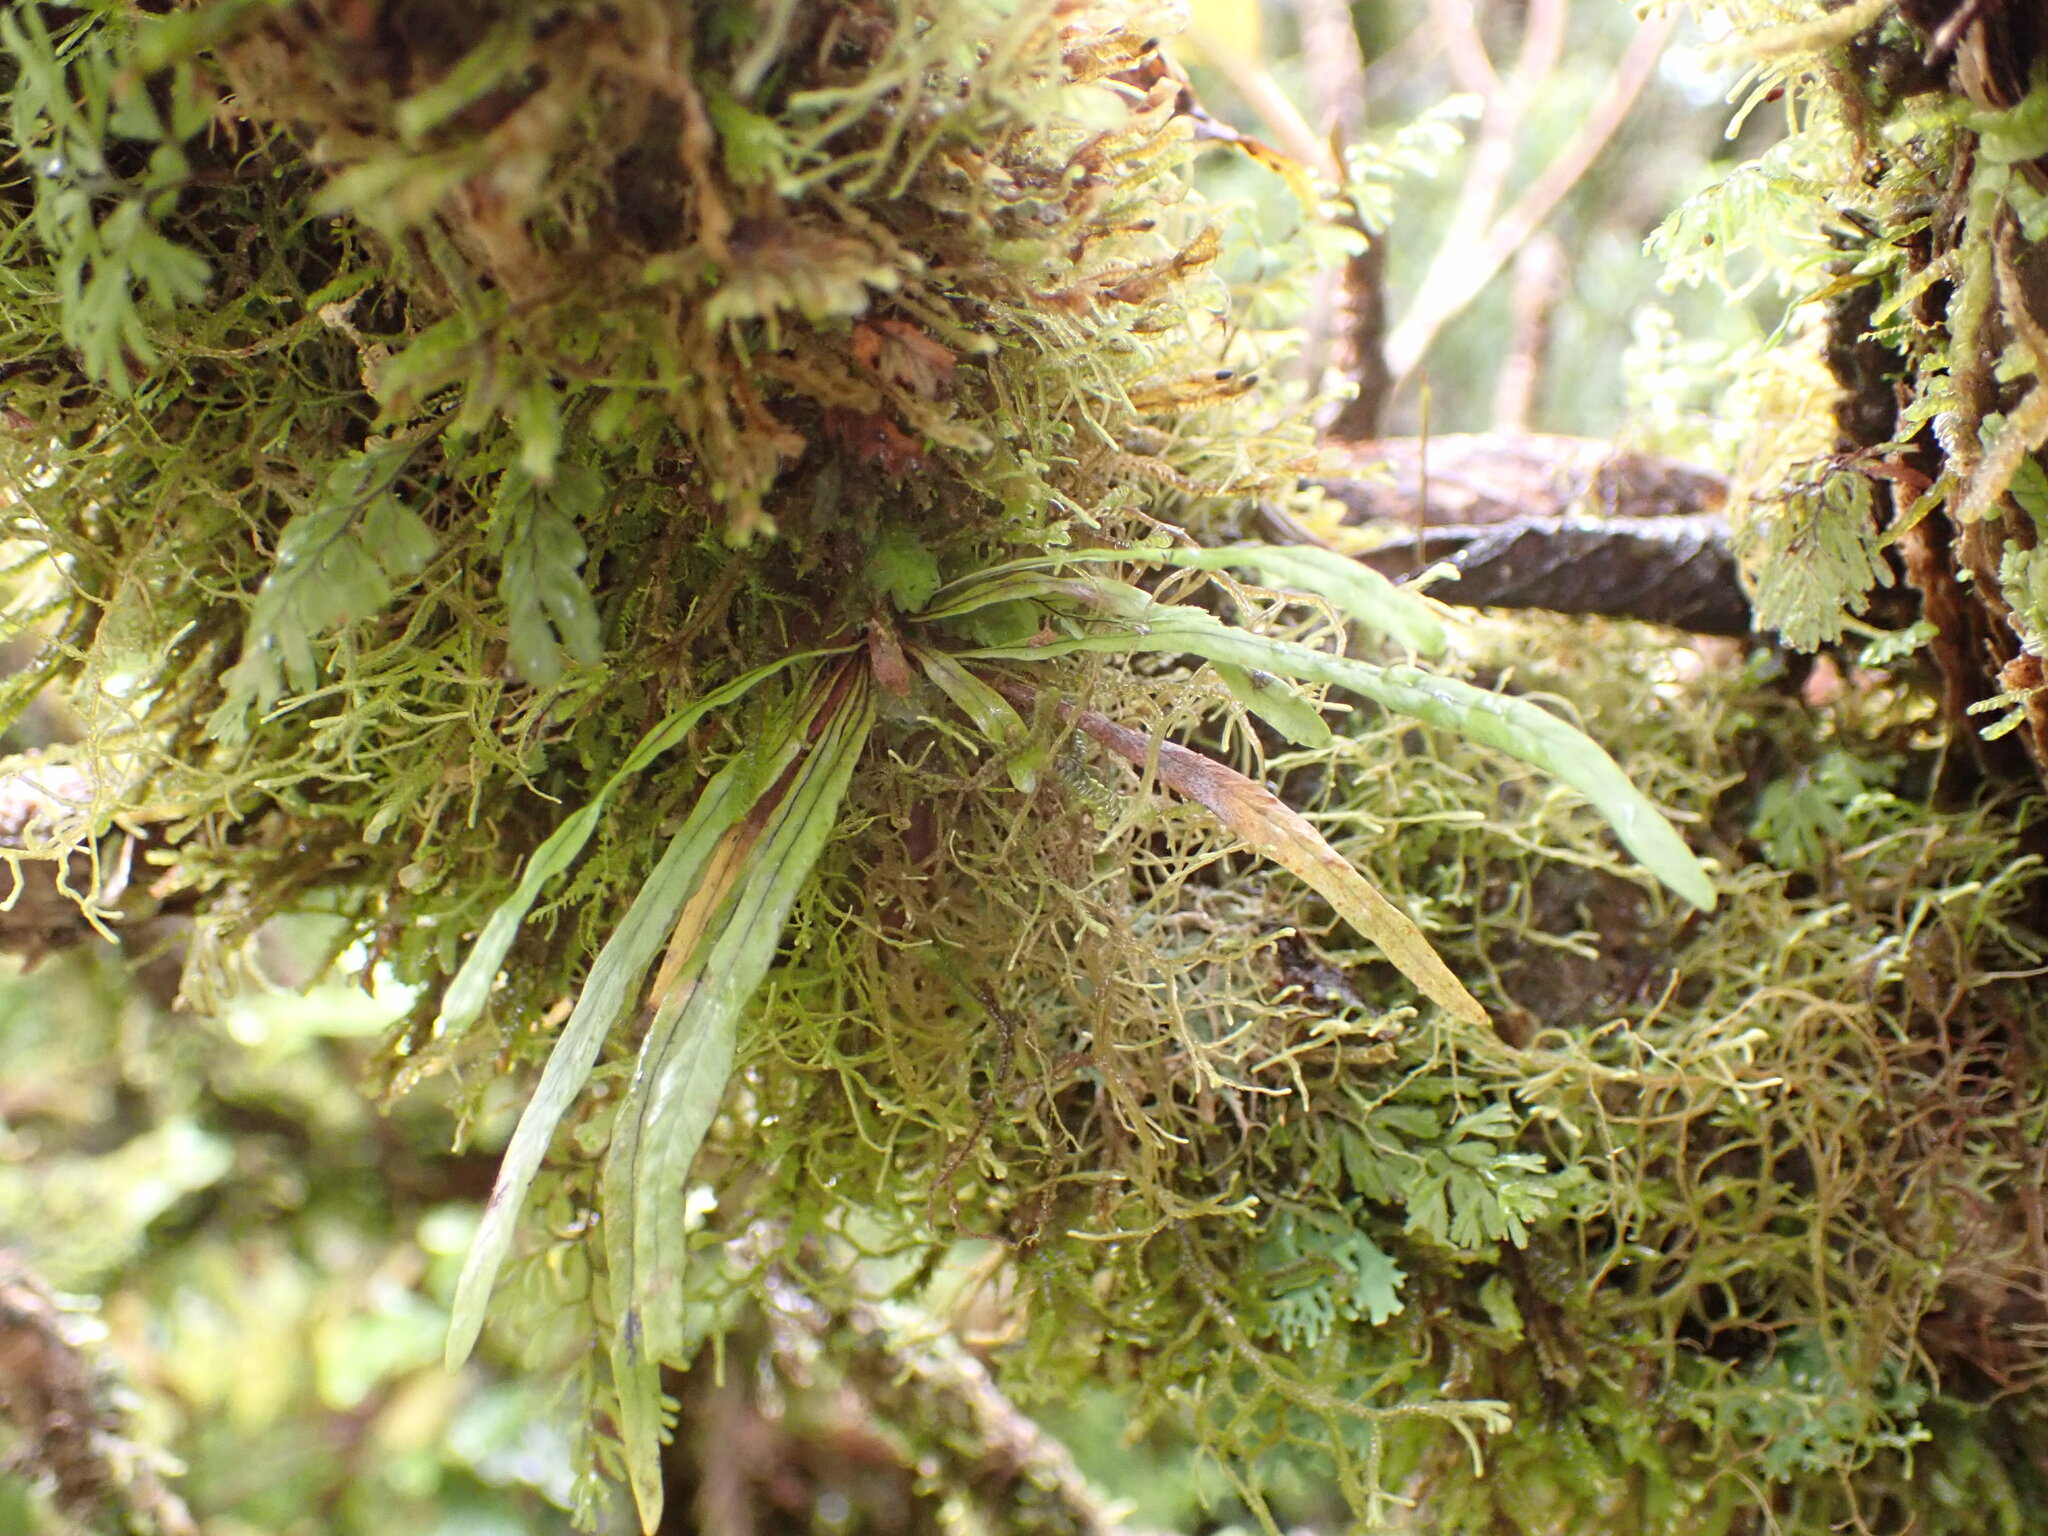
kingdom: Plantae
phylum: Tracheophyta
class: Polypodiopsida
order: Polypodiales
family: Polypodiaceae
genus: Notogrammitis
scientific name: Notogrammitis angustifolia
